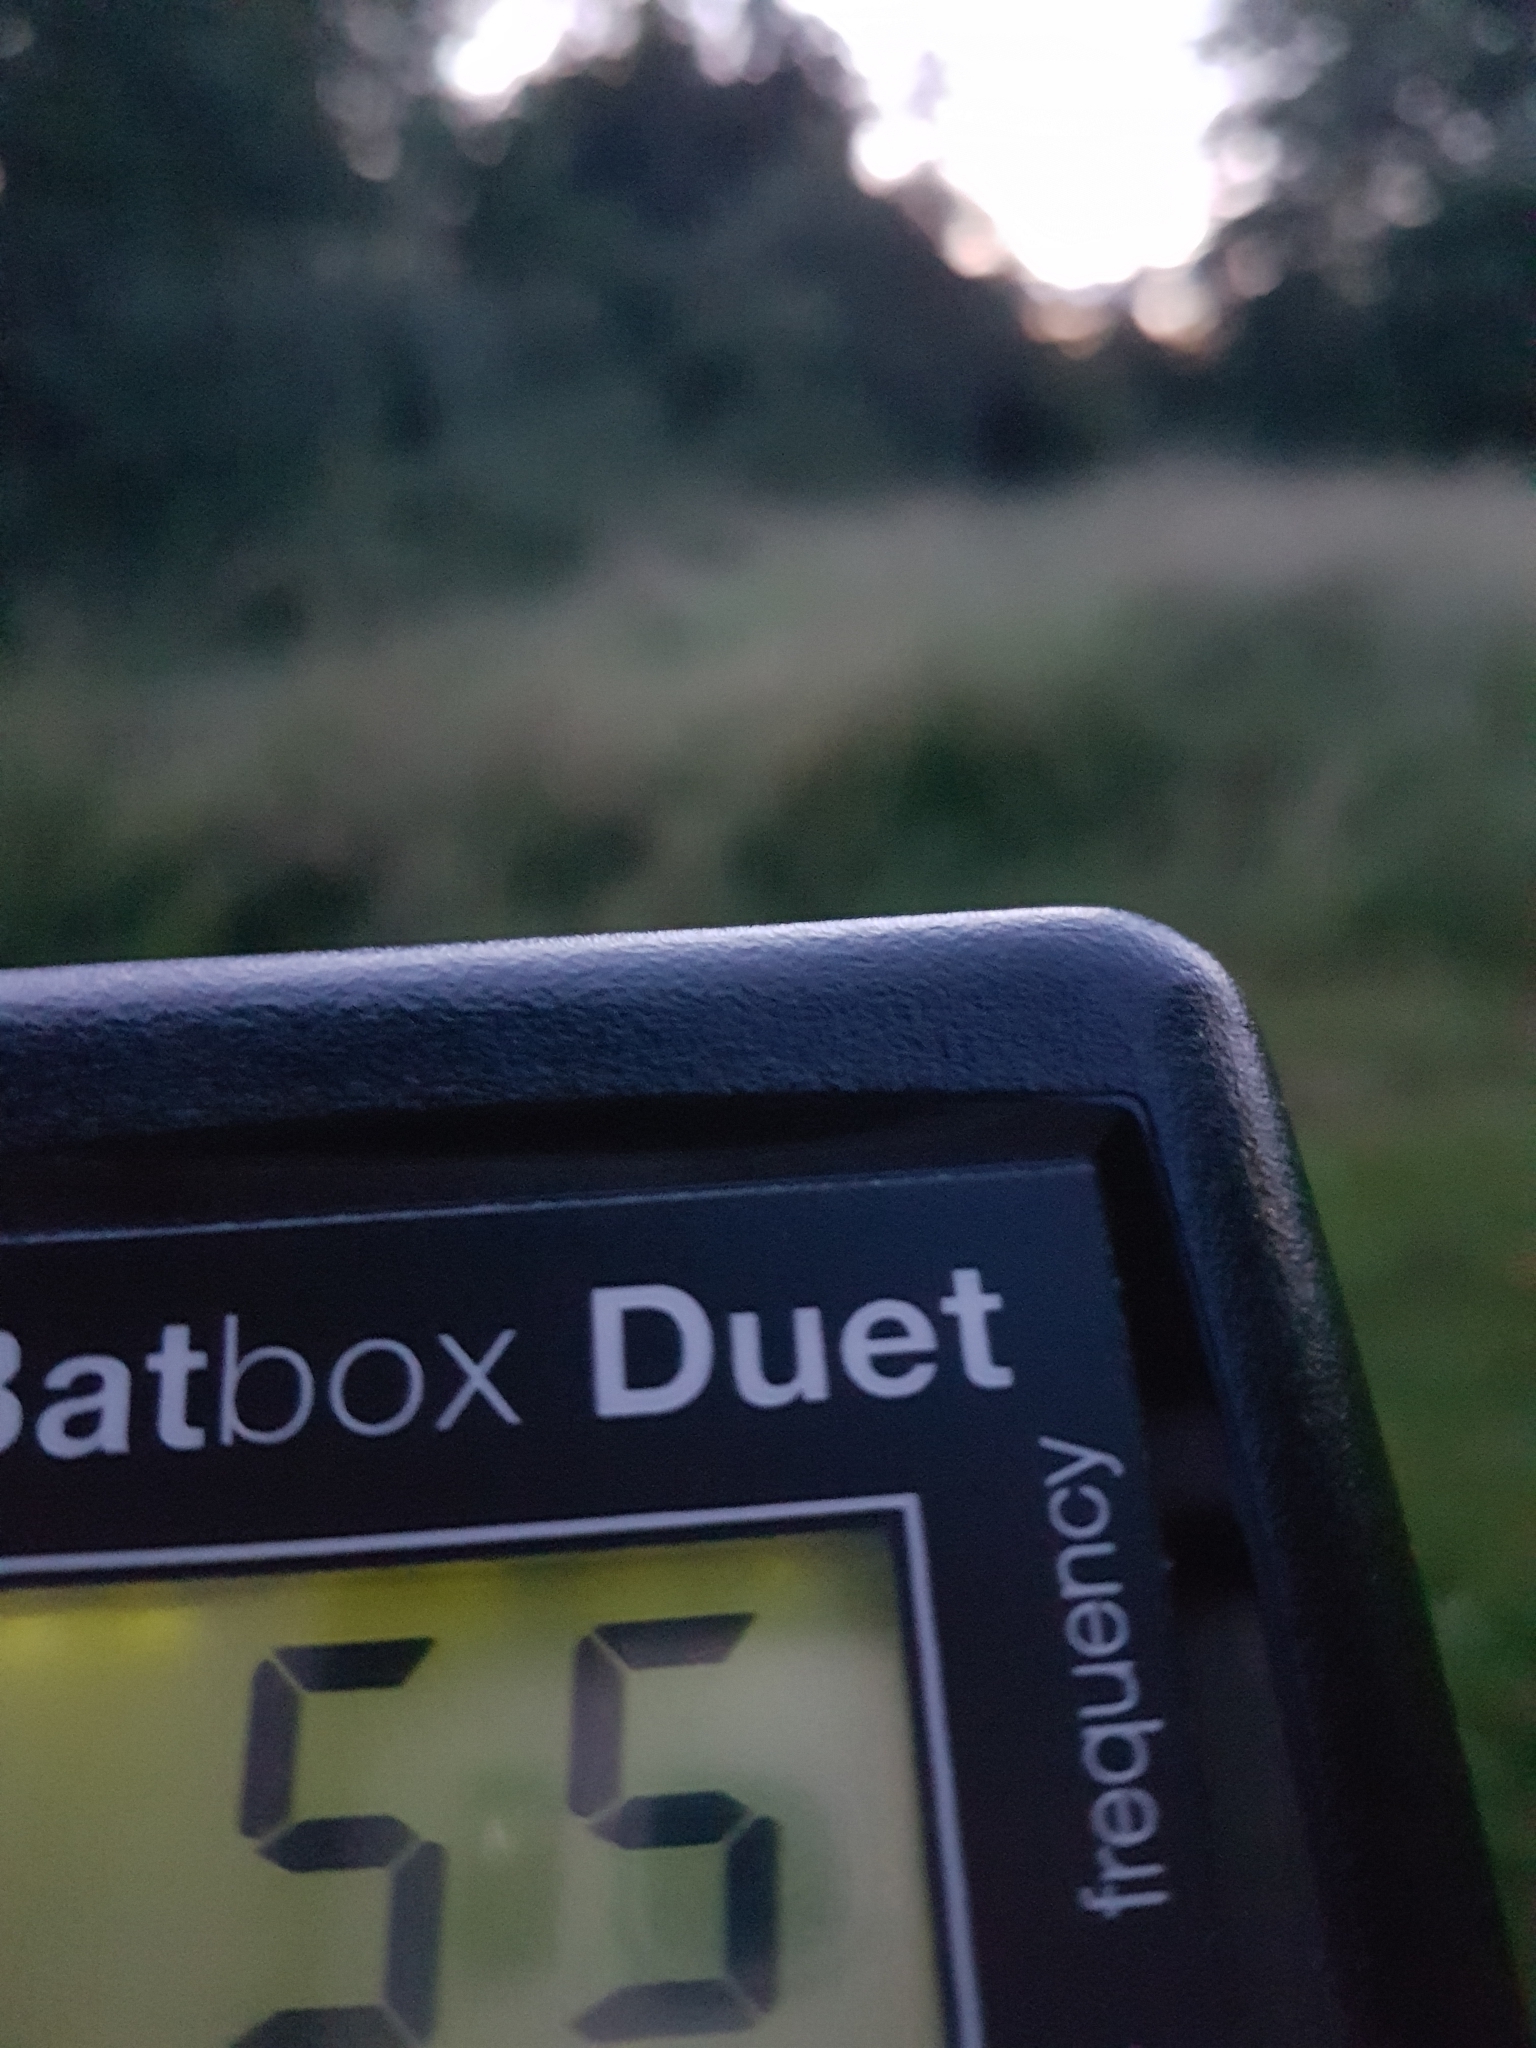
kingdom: Animalia
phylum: Chordata
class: Mammalia
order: Chiroptera
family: Vespertilionidae
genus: Pipistrellus
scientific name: Pipistrellus pygmaeus
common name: Soprano pipistrelle
